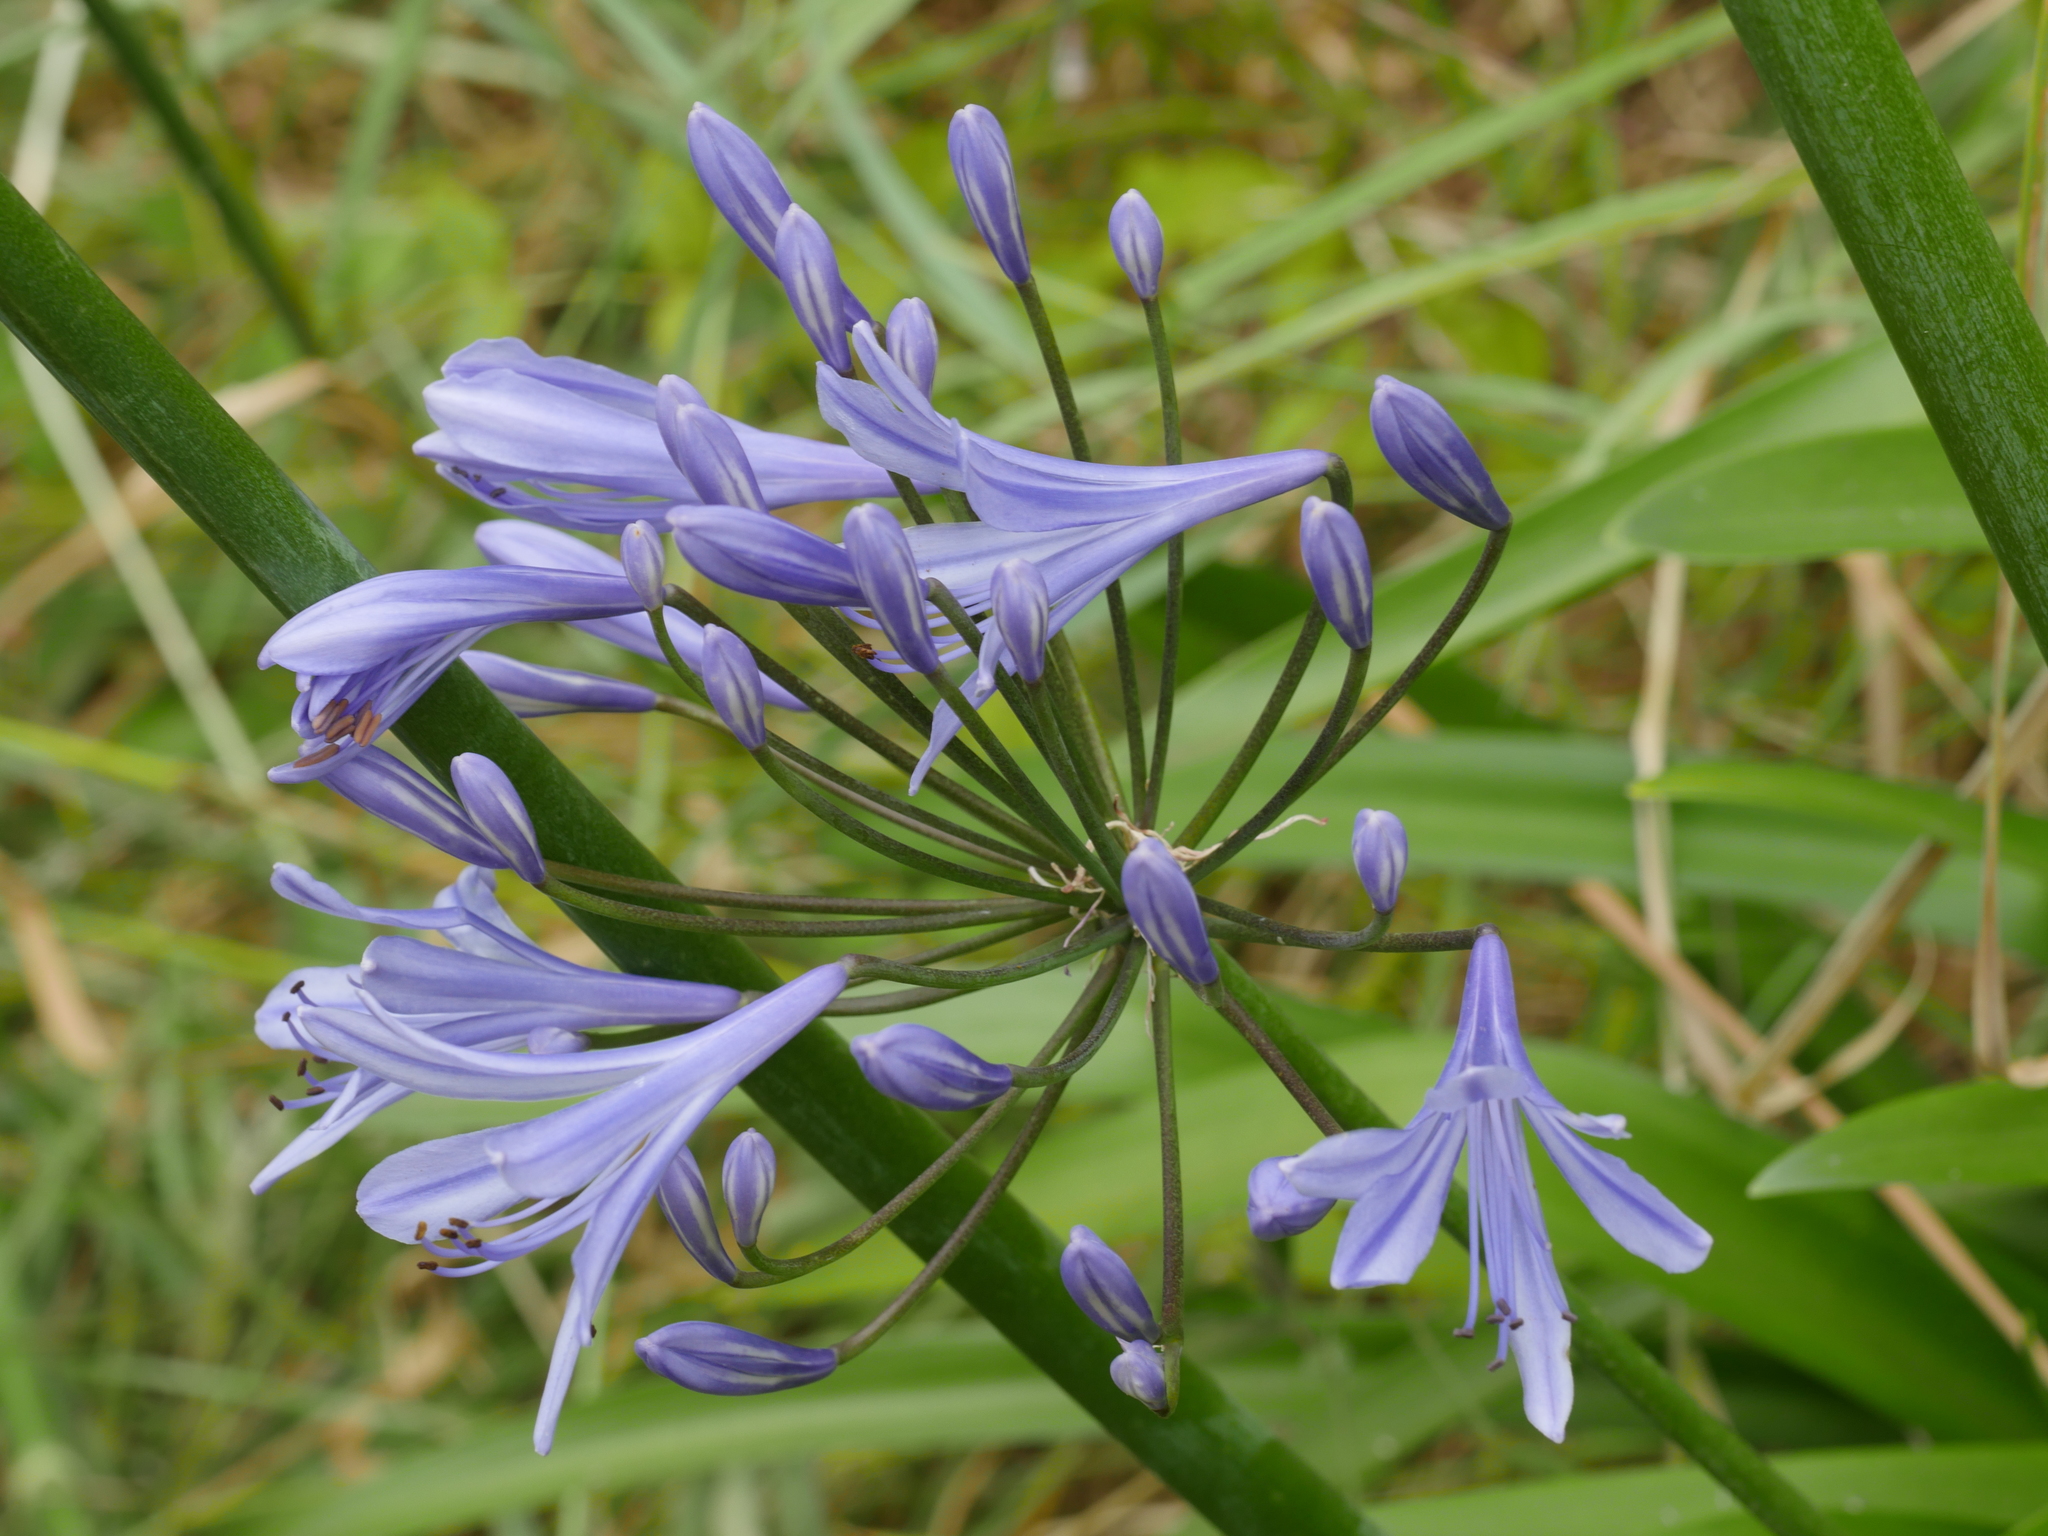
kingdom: Plantae
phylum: Tracheophyta
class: Liliopsida
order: Asparagales
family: Amaryllidaceae
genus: Agapanthus
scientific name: Agapanthus praecox
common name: African-lily
